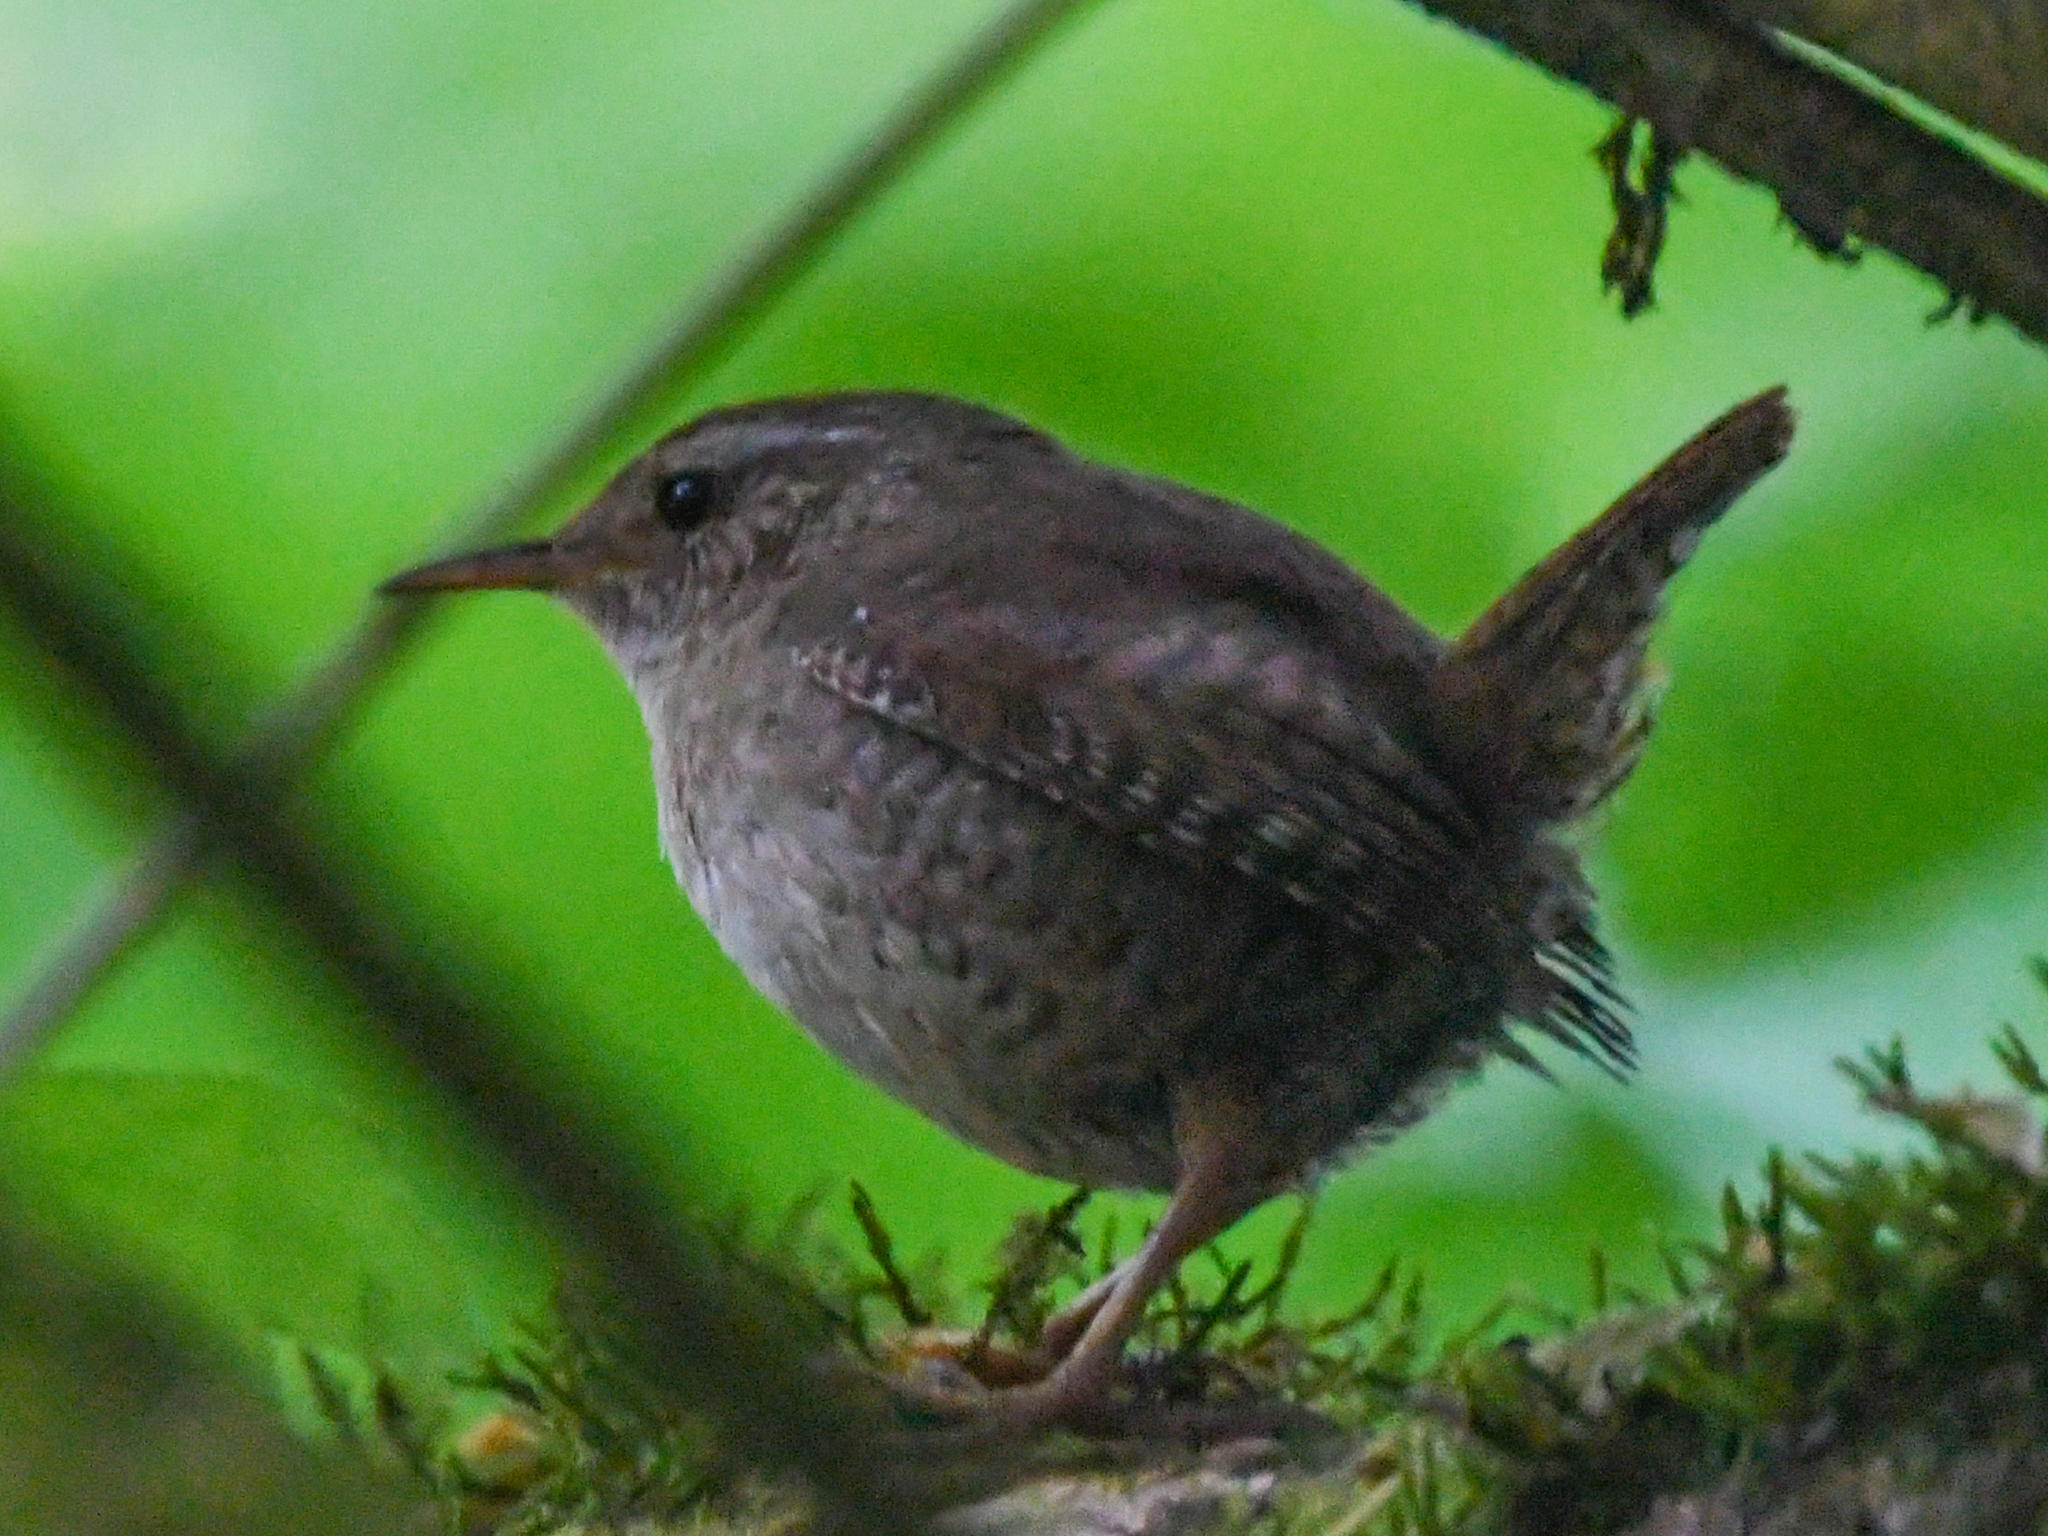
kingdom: Animalia
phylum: Chordata
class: Aves
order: Passeriformes
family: Troglodytidae
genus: Troglodytes
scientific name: Troglodytes troglodytes
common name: Eurasian wren
